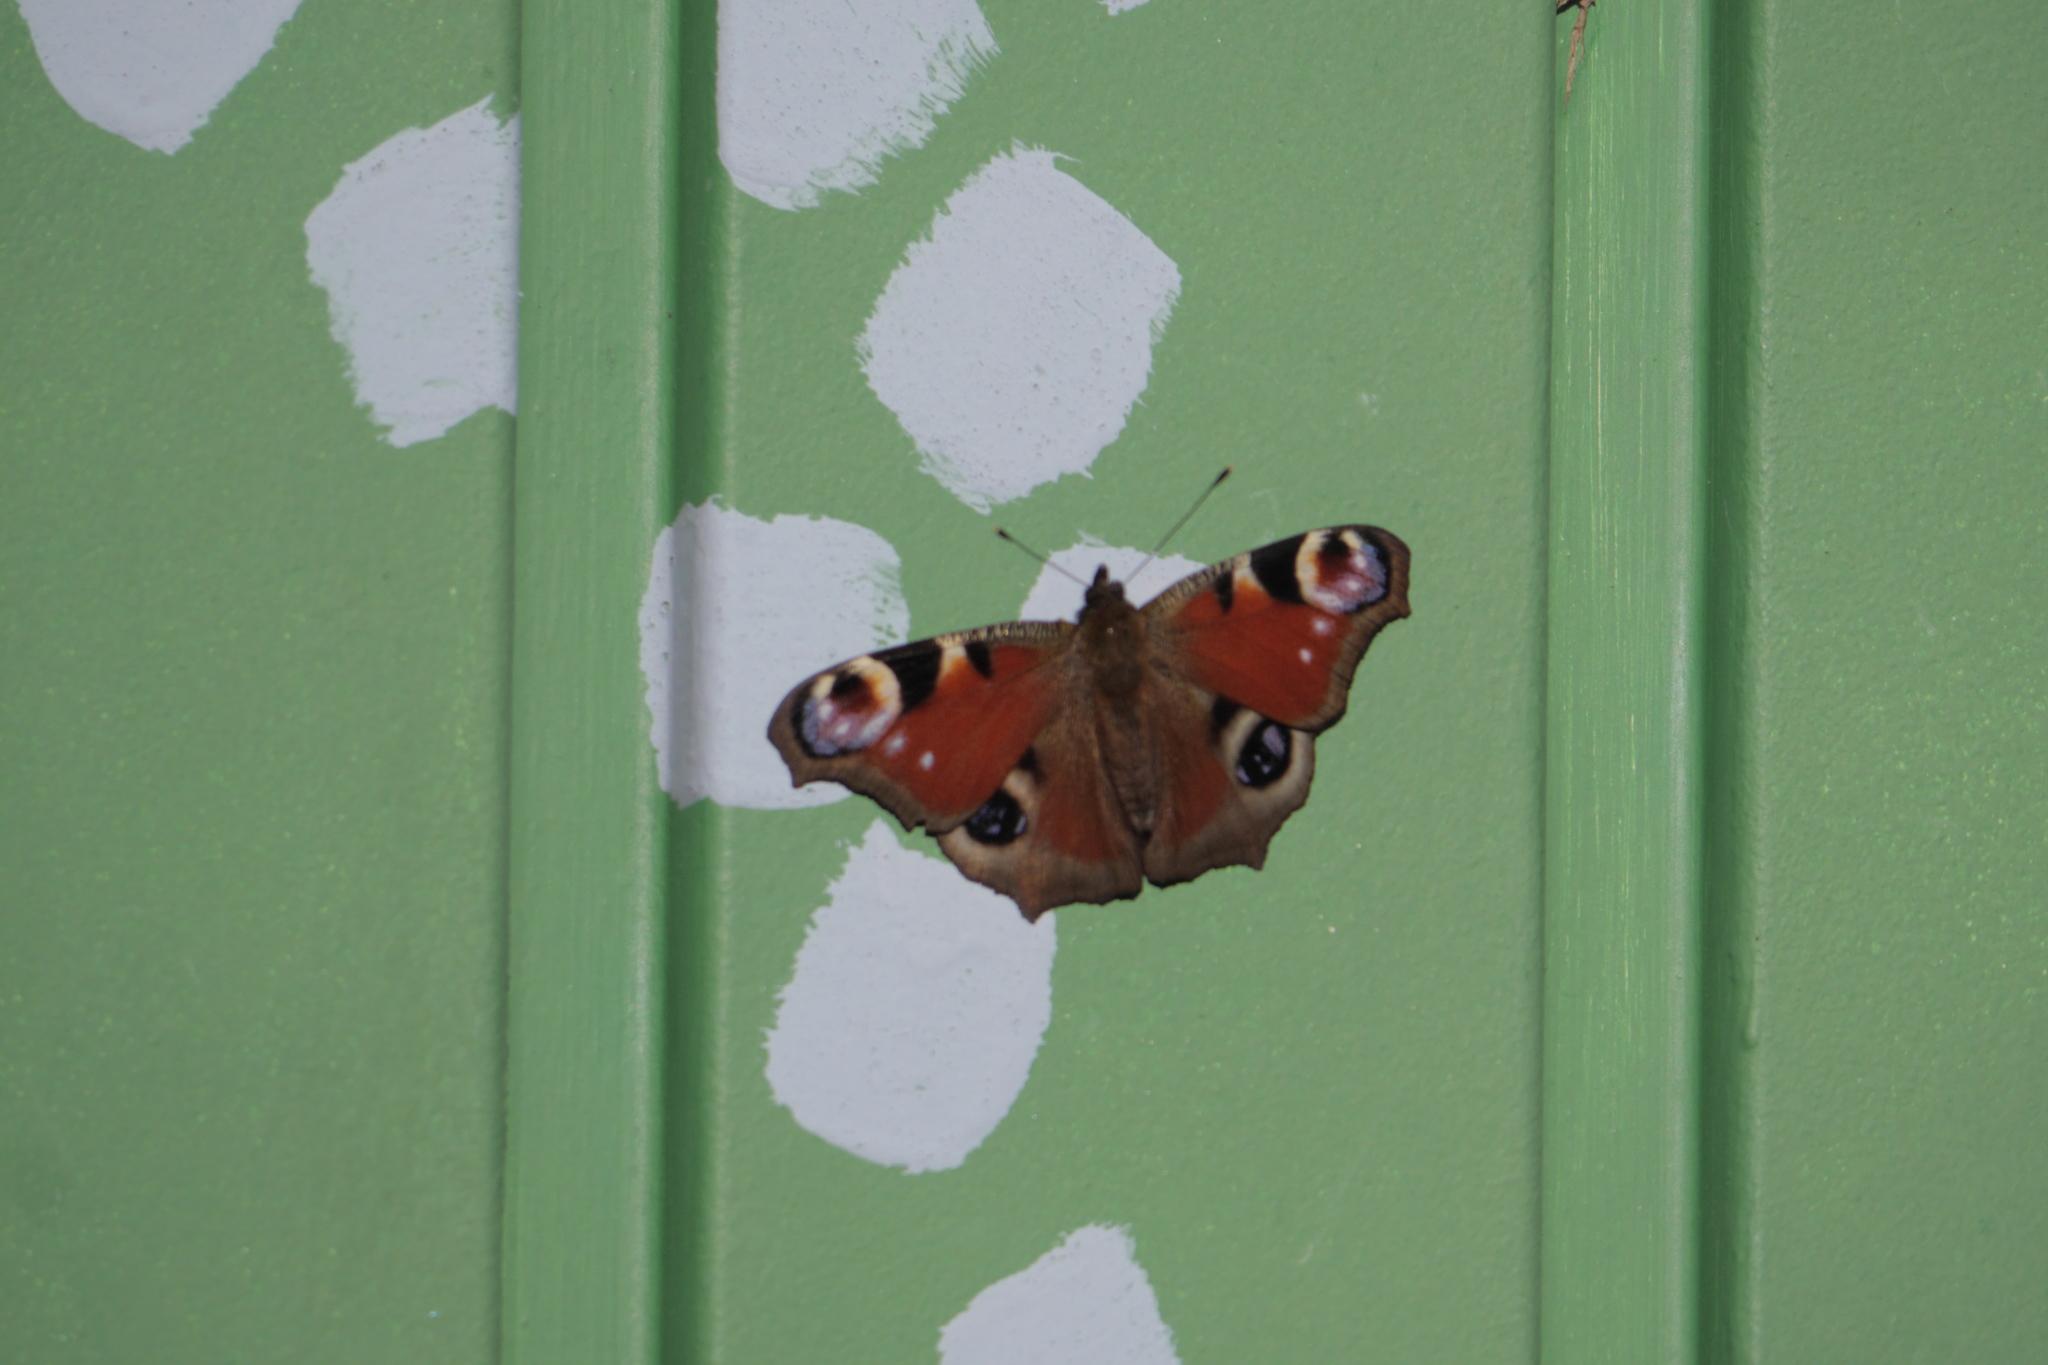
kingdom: Animalia
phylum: Arthropoda
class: Insecta
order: Lepidoptera
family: Nymphalidae
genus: Aglais
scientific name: Aglais io
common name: Peacock
